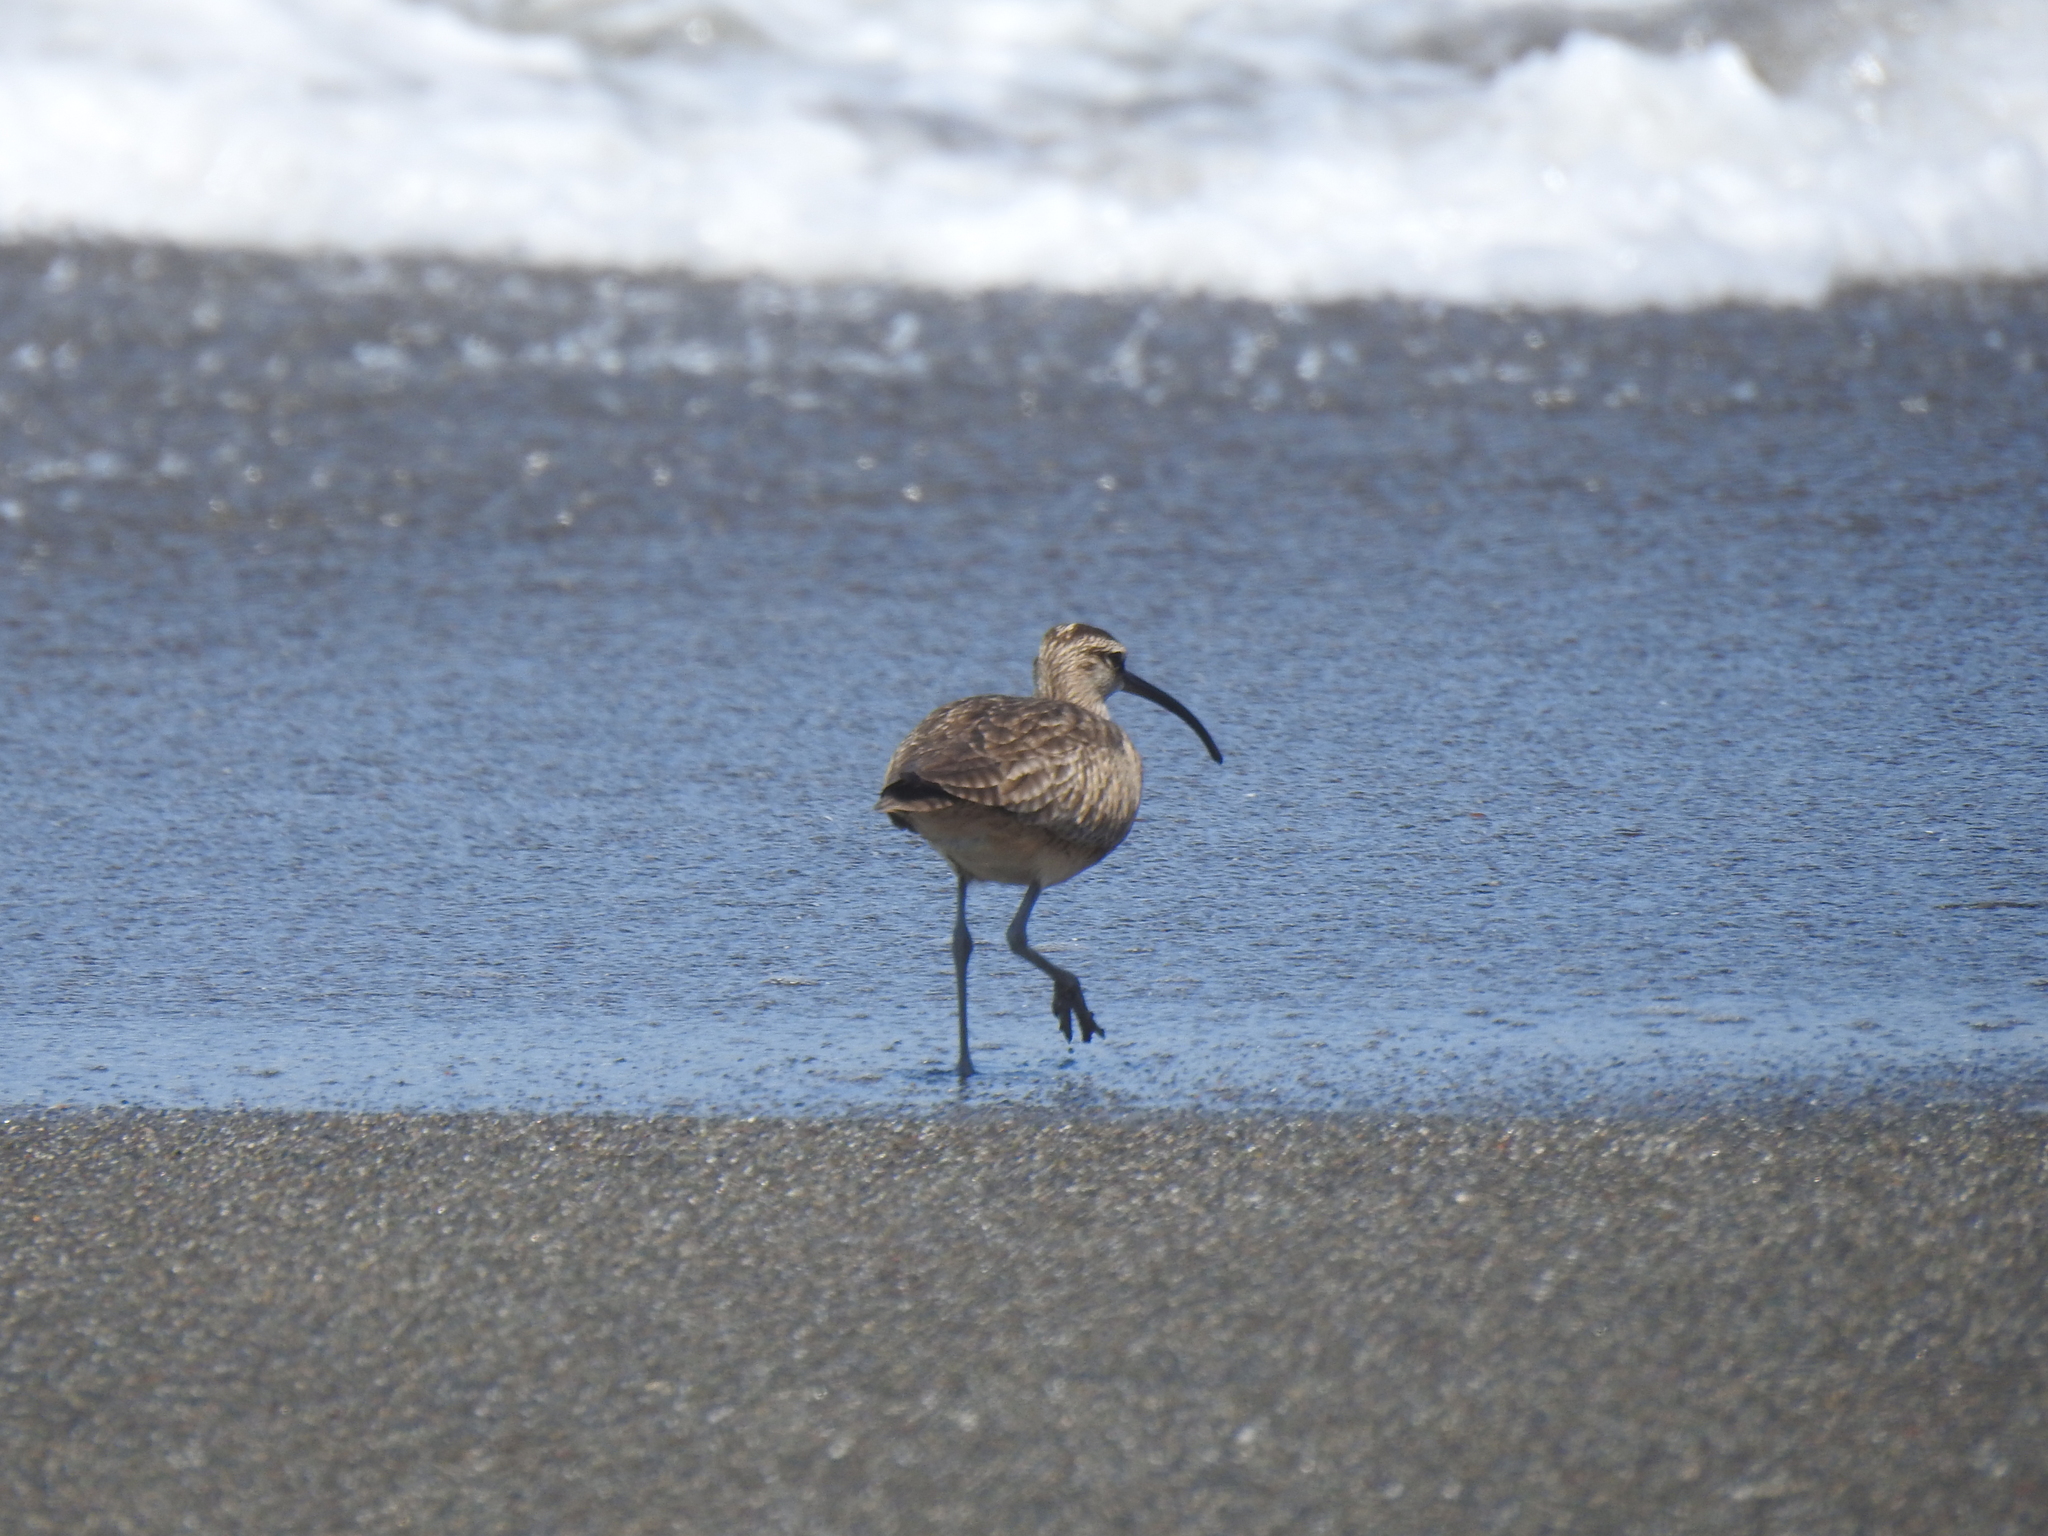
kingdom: Animalia
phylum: Chordata
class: Aves
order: Charadriiformes
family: Scolopacidae
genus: Numenius
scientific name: Numenius phaeopus
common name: Whimbrel
